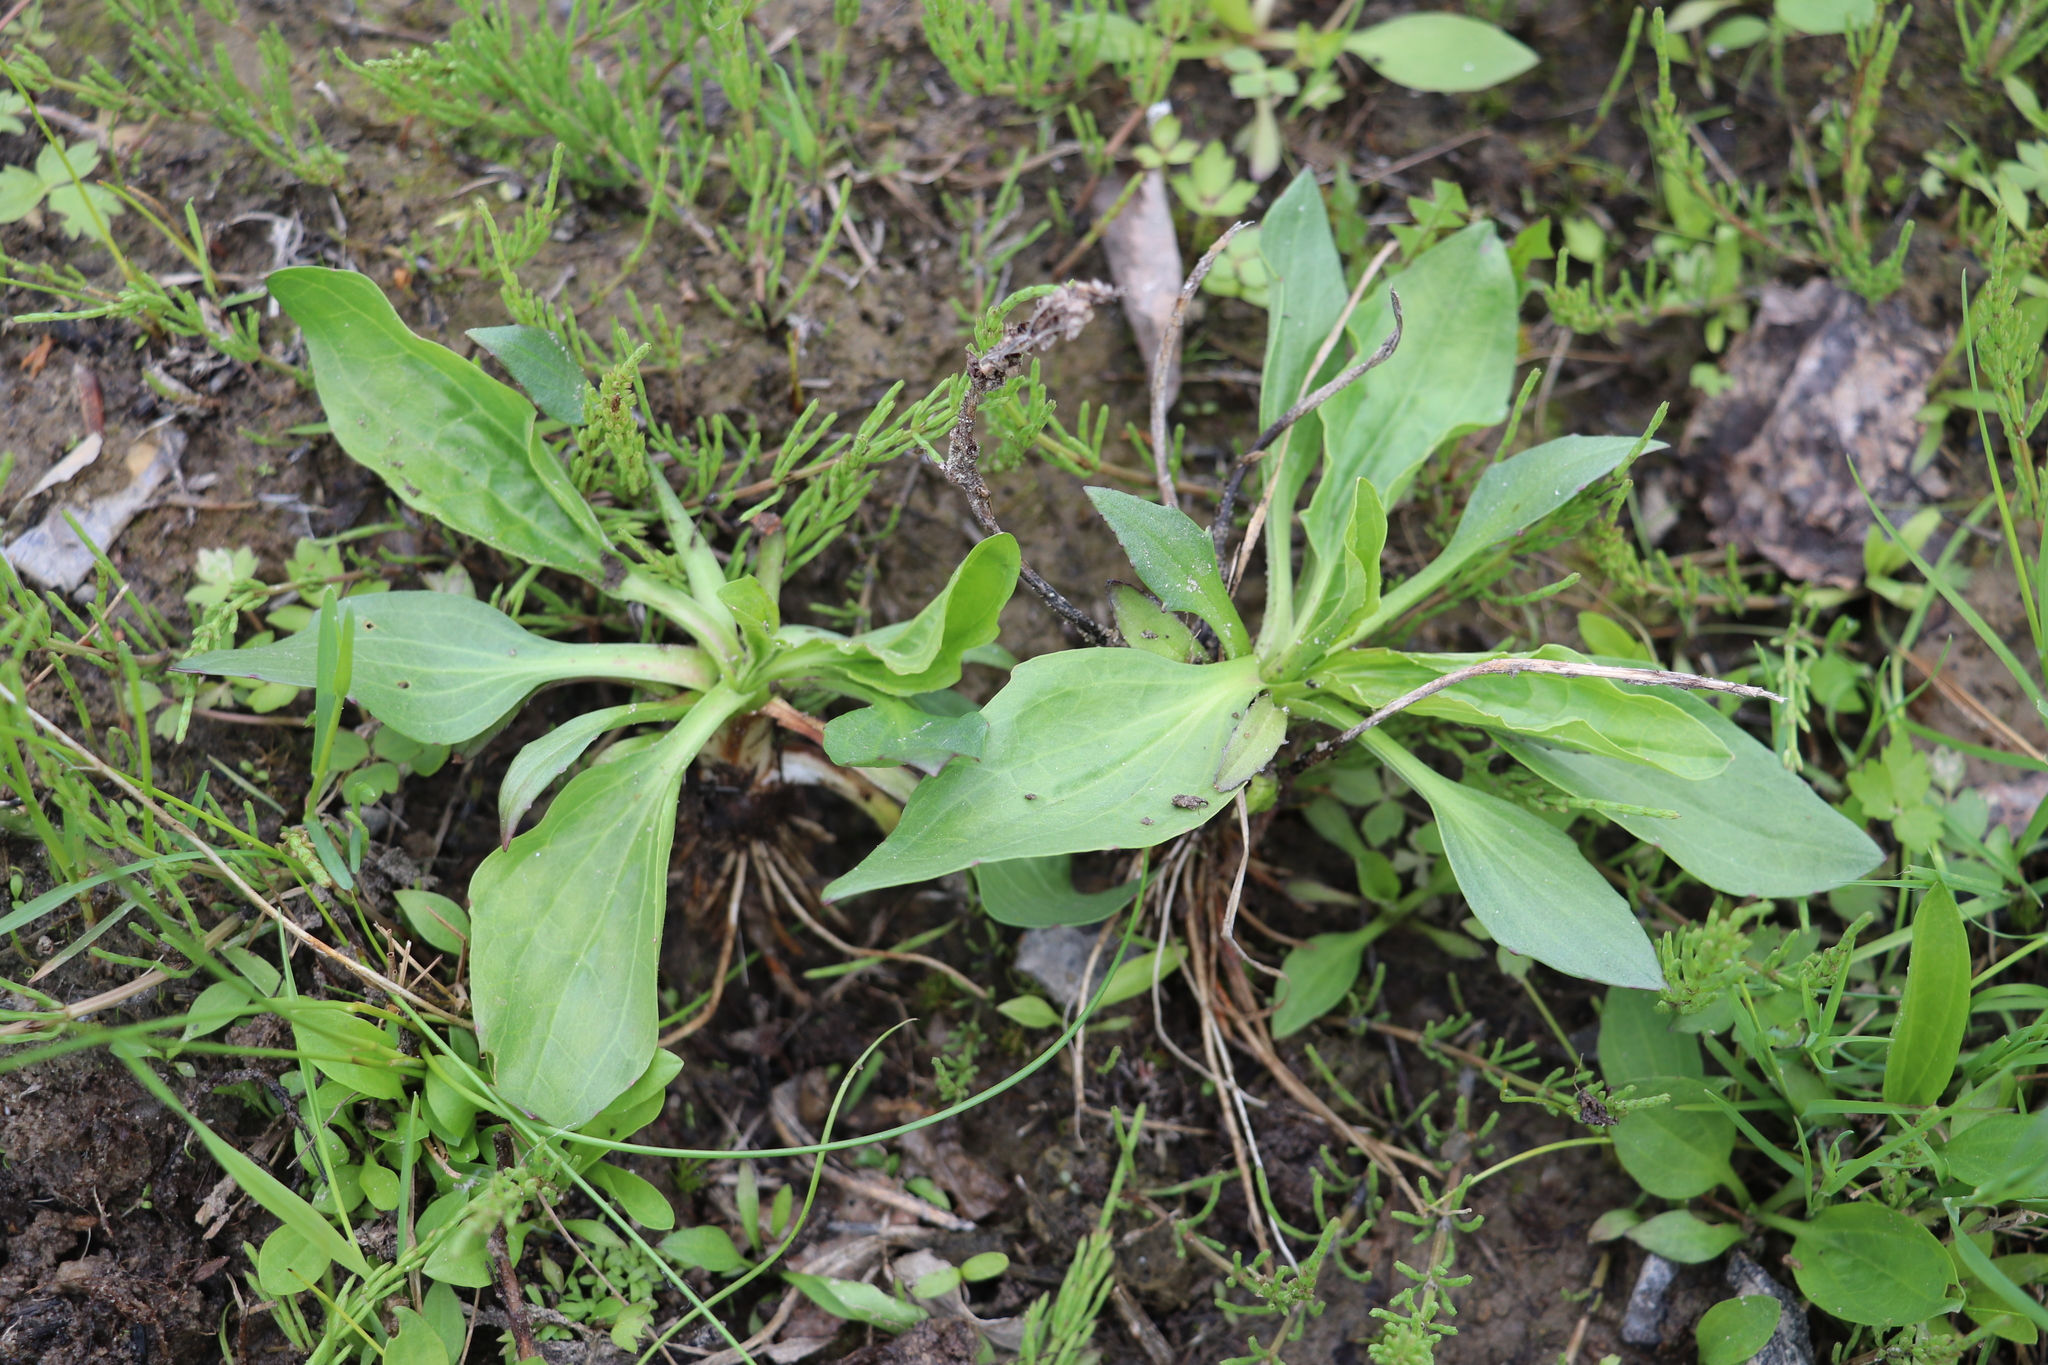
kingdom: Plantae
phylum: Tracheophyta
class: Magnoliopsida
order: Lamiales
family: Plantaginaceae
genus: Plantago
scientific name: Plantago major
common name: Common plantain
